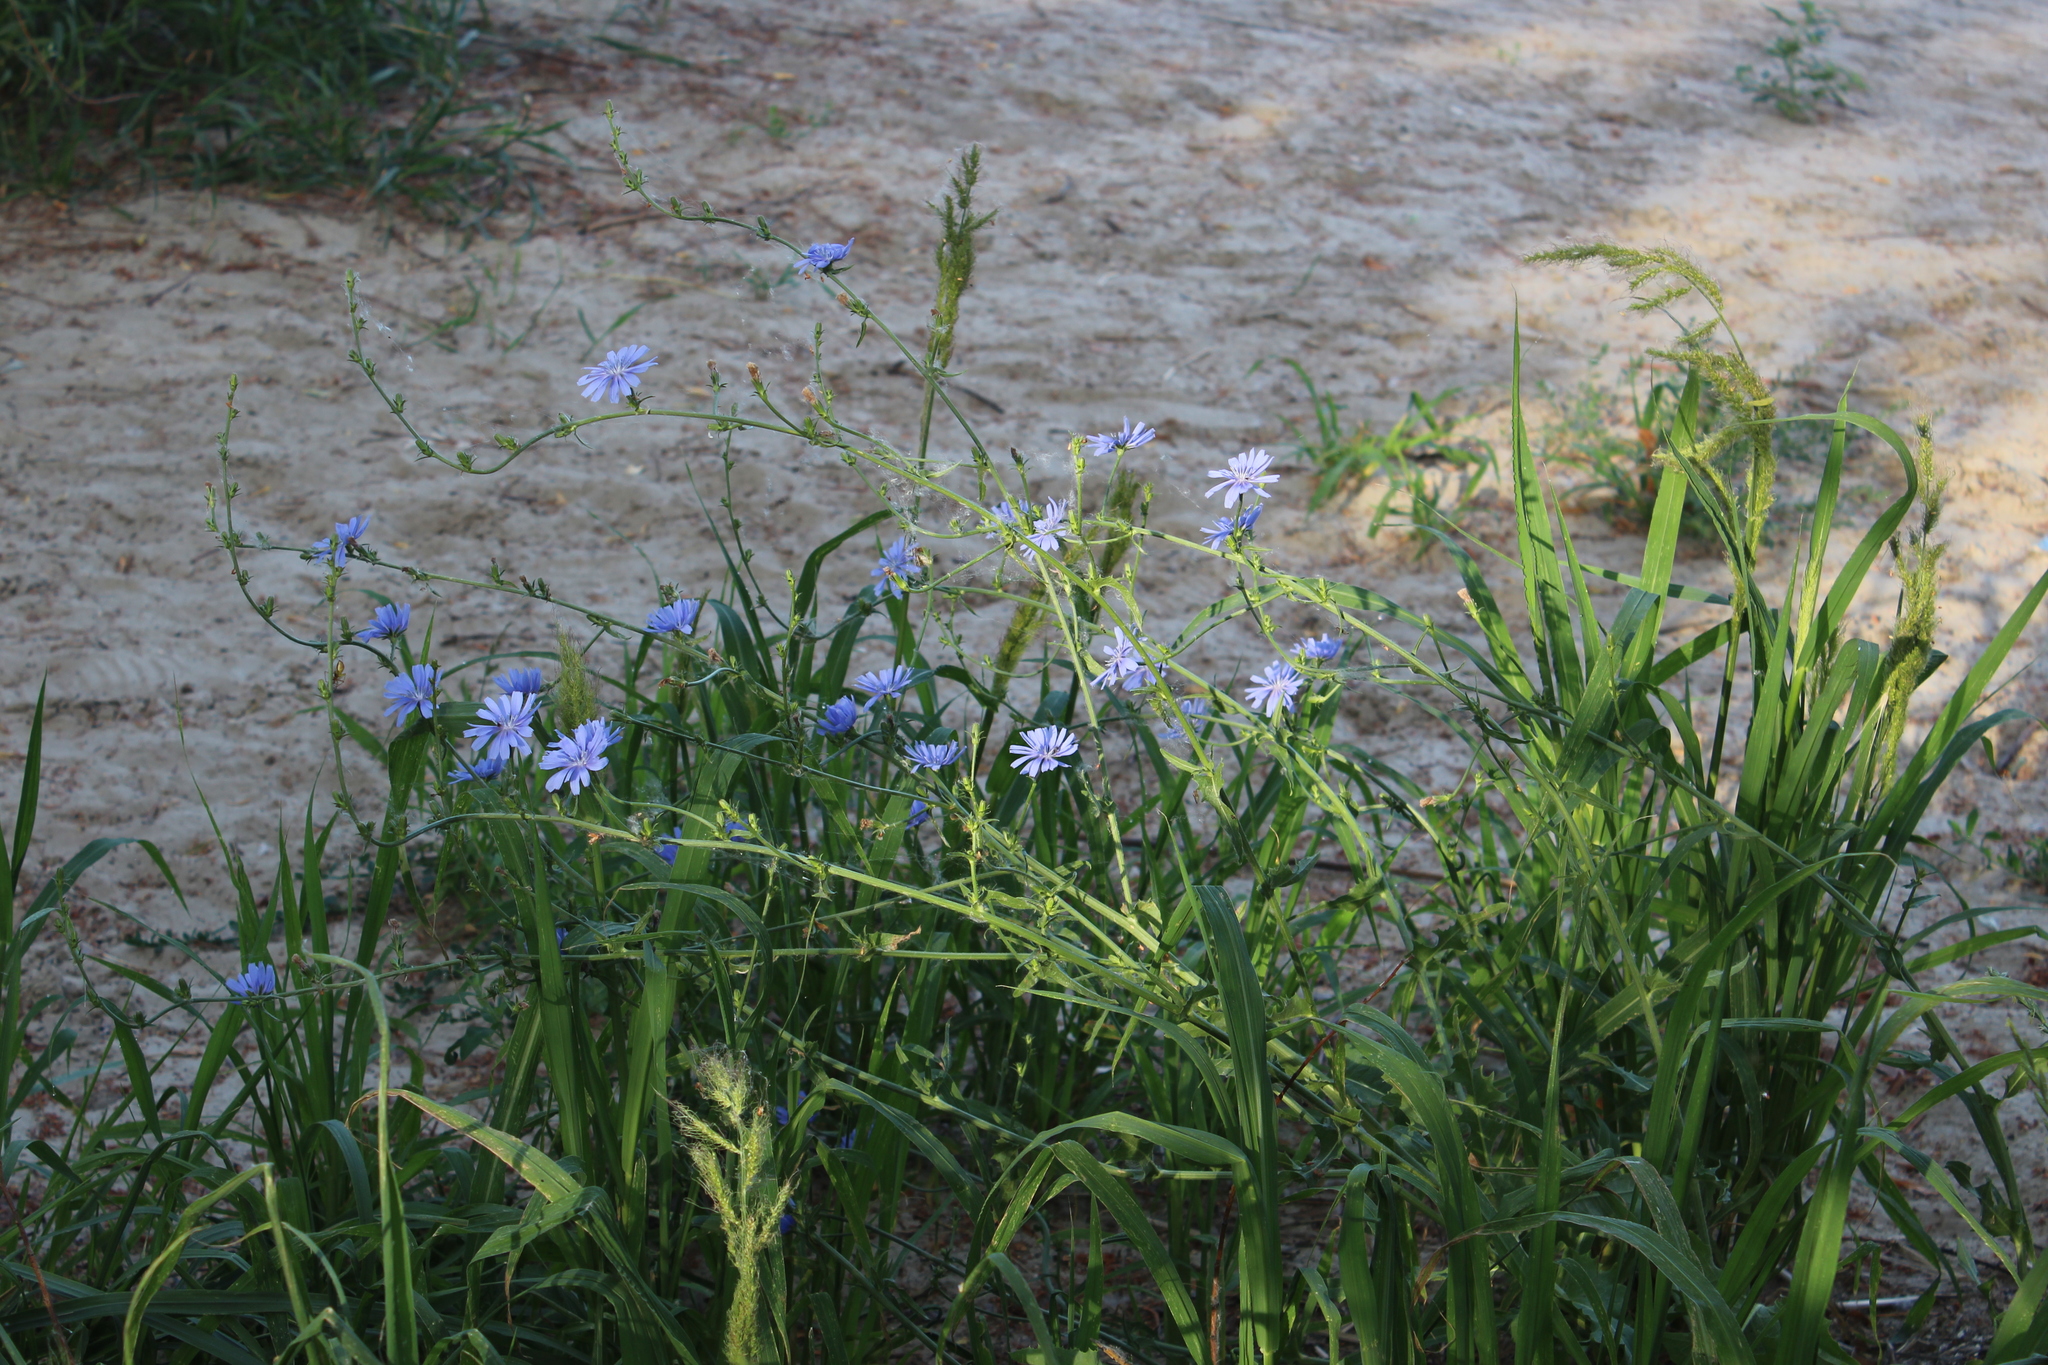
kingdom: Plantae
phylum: Tracheophyta
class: Magnoliopsida
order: Asterales
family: Asteraceae
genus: Cichorium
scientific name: Cichorium intybus
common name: Chicory
